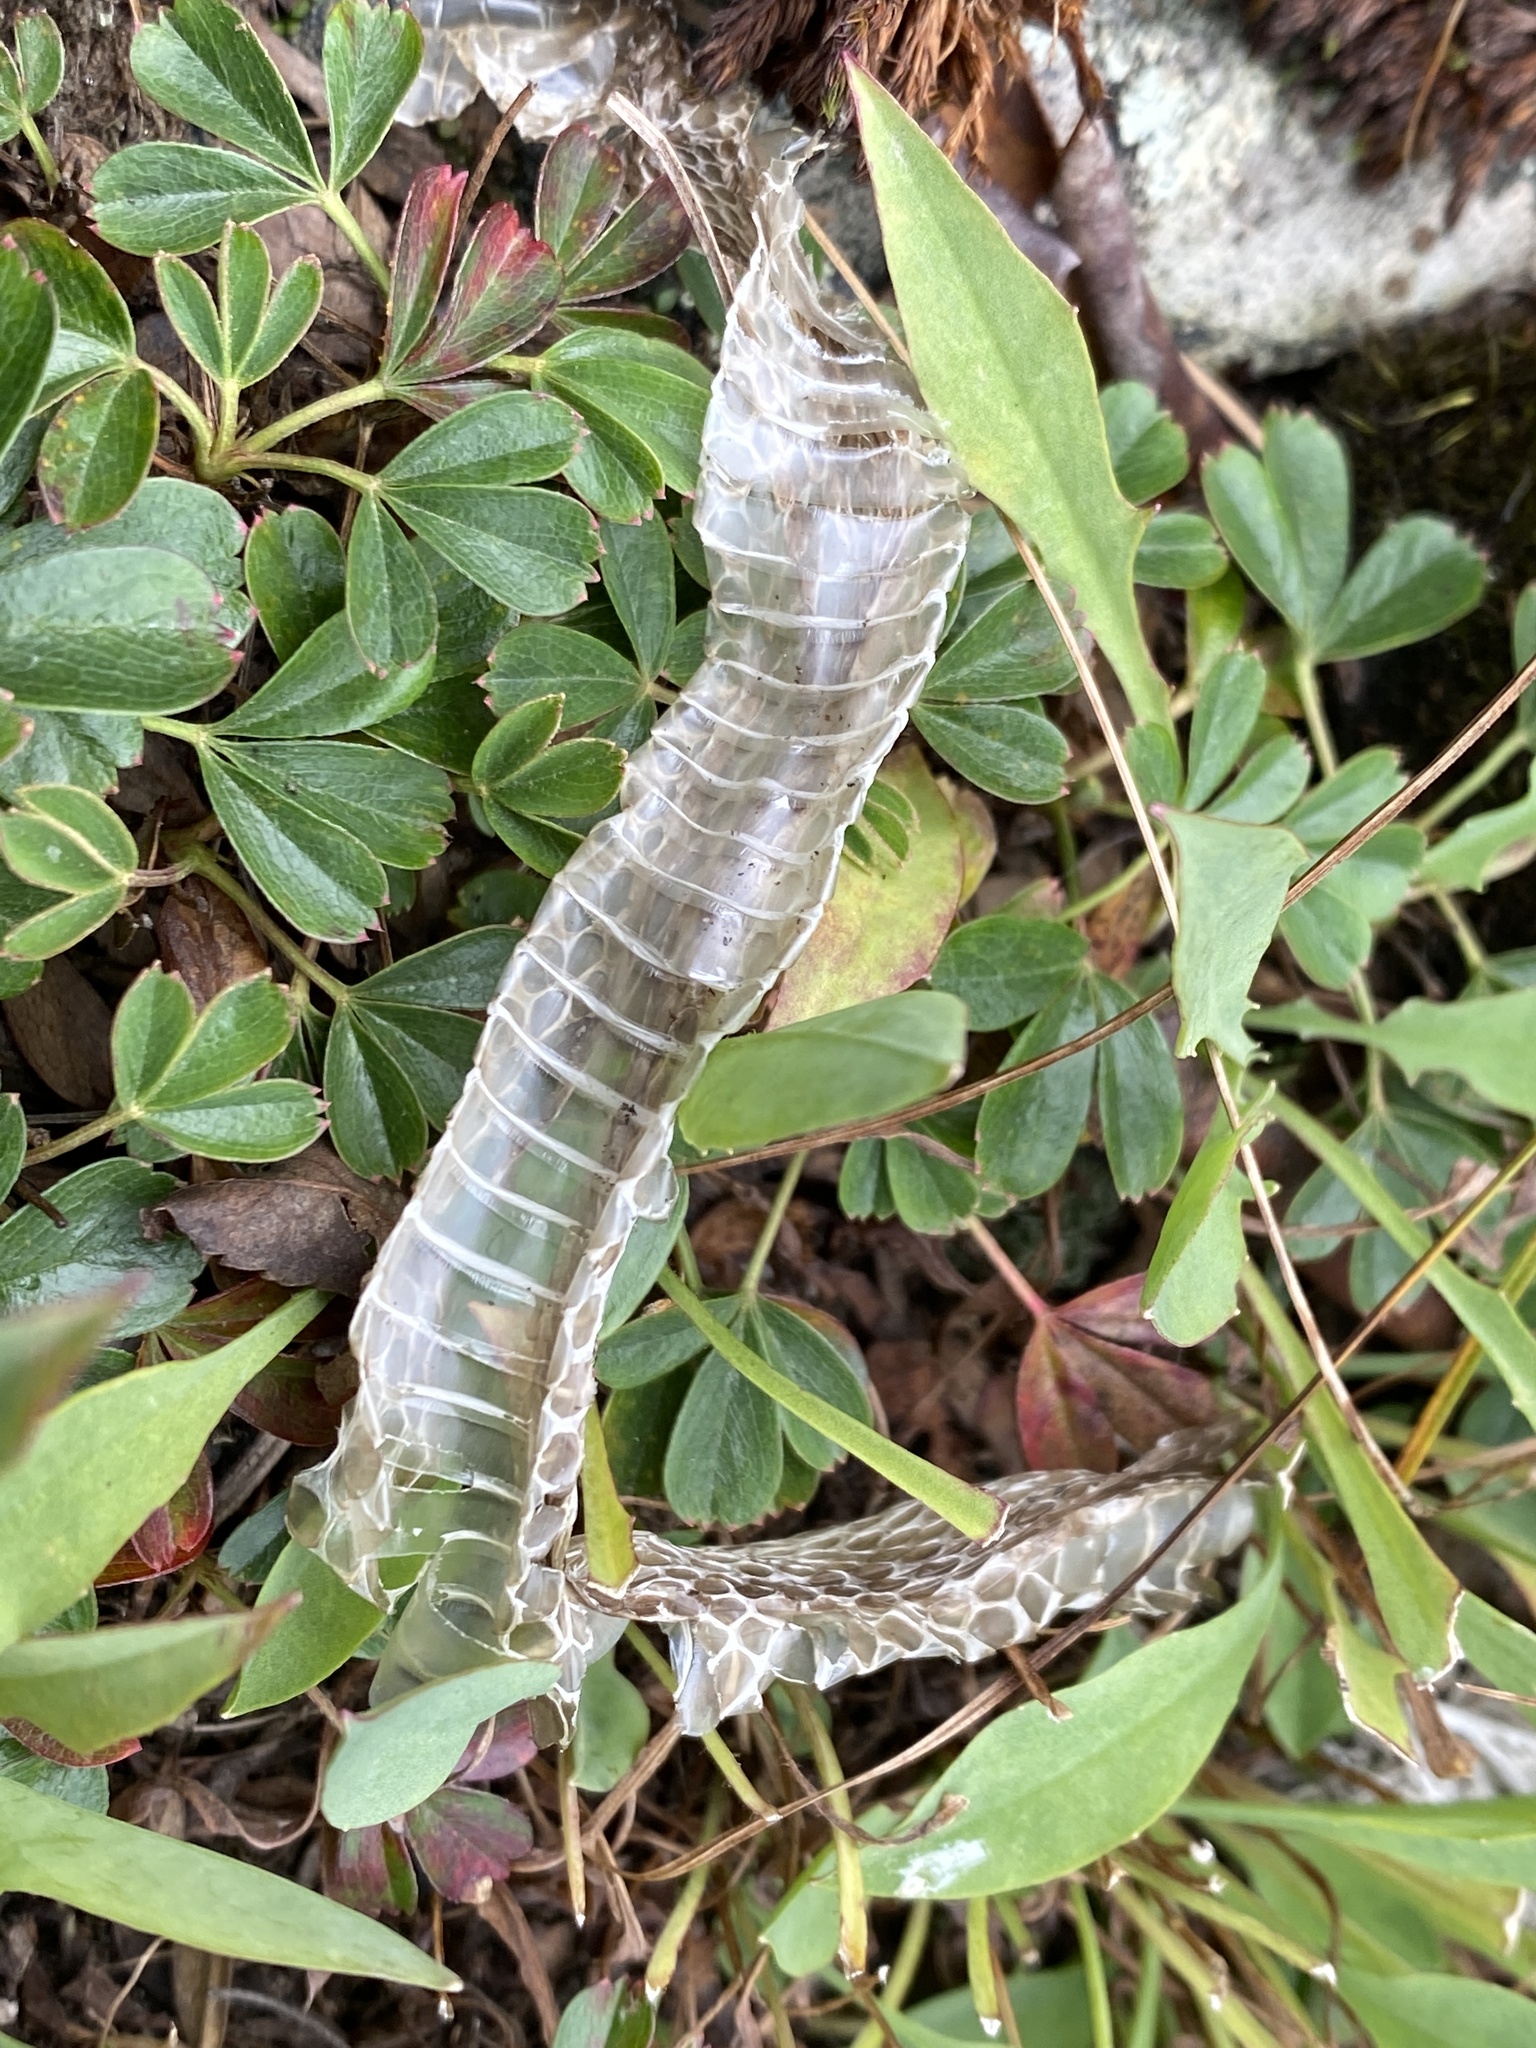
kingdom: Animalia
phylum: Chordata
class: Squamata
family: Colubridae
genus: Thamnophis
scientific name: Thamnophis sirtalis
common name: Common garter snake
